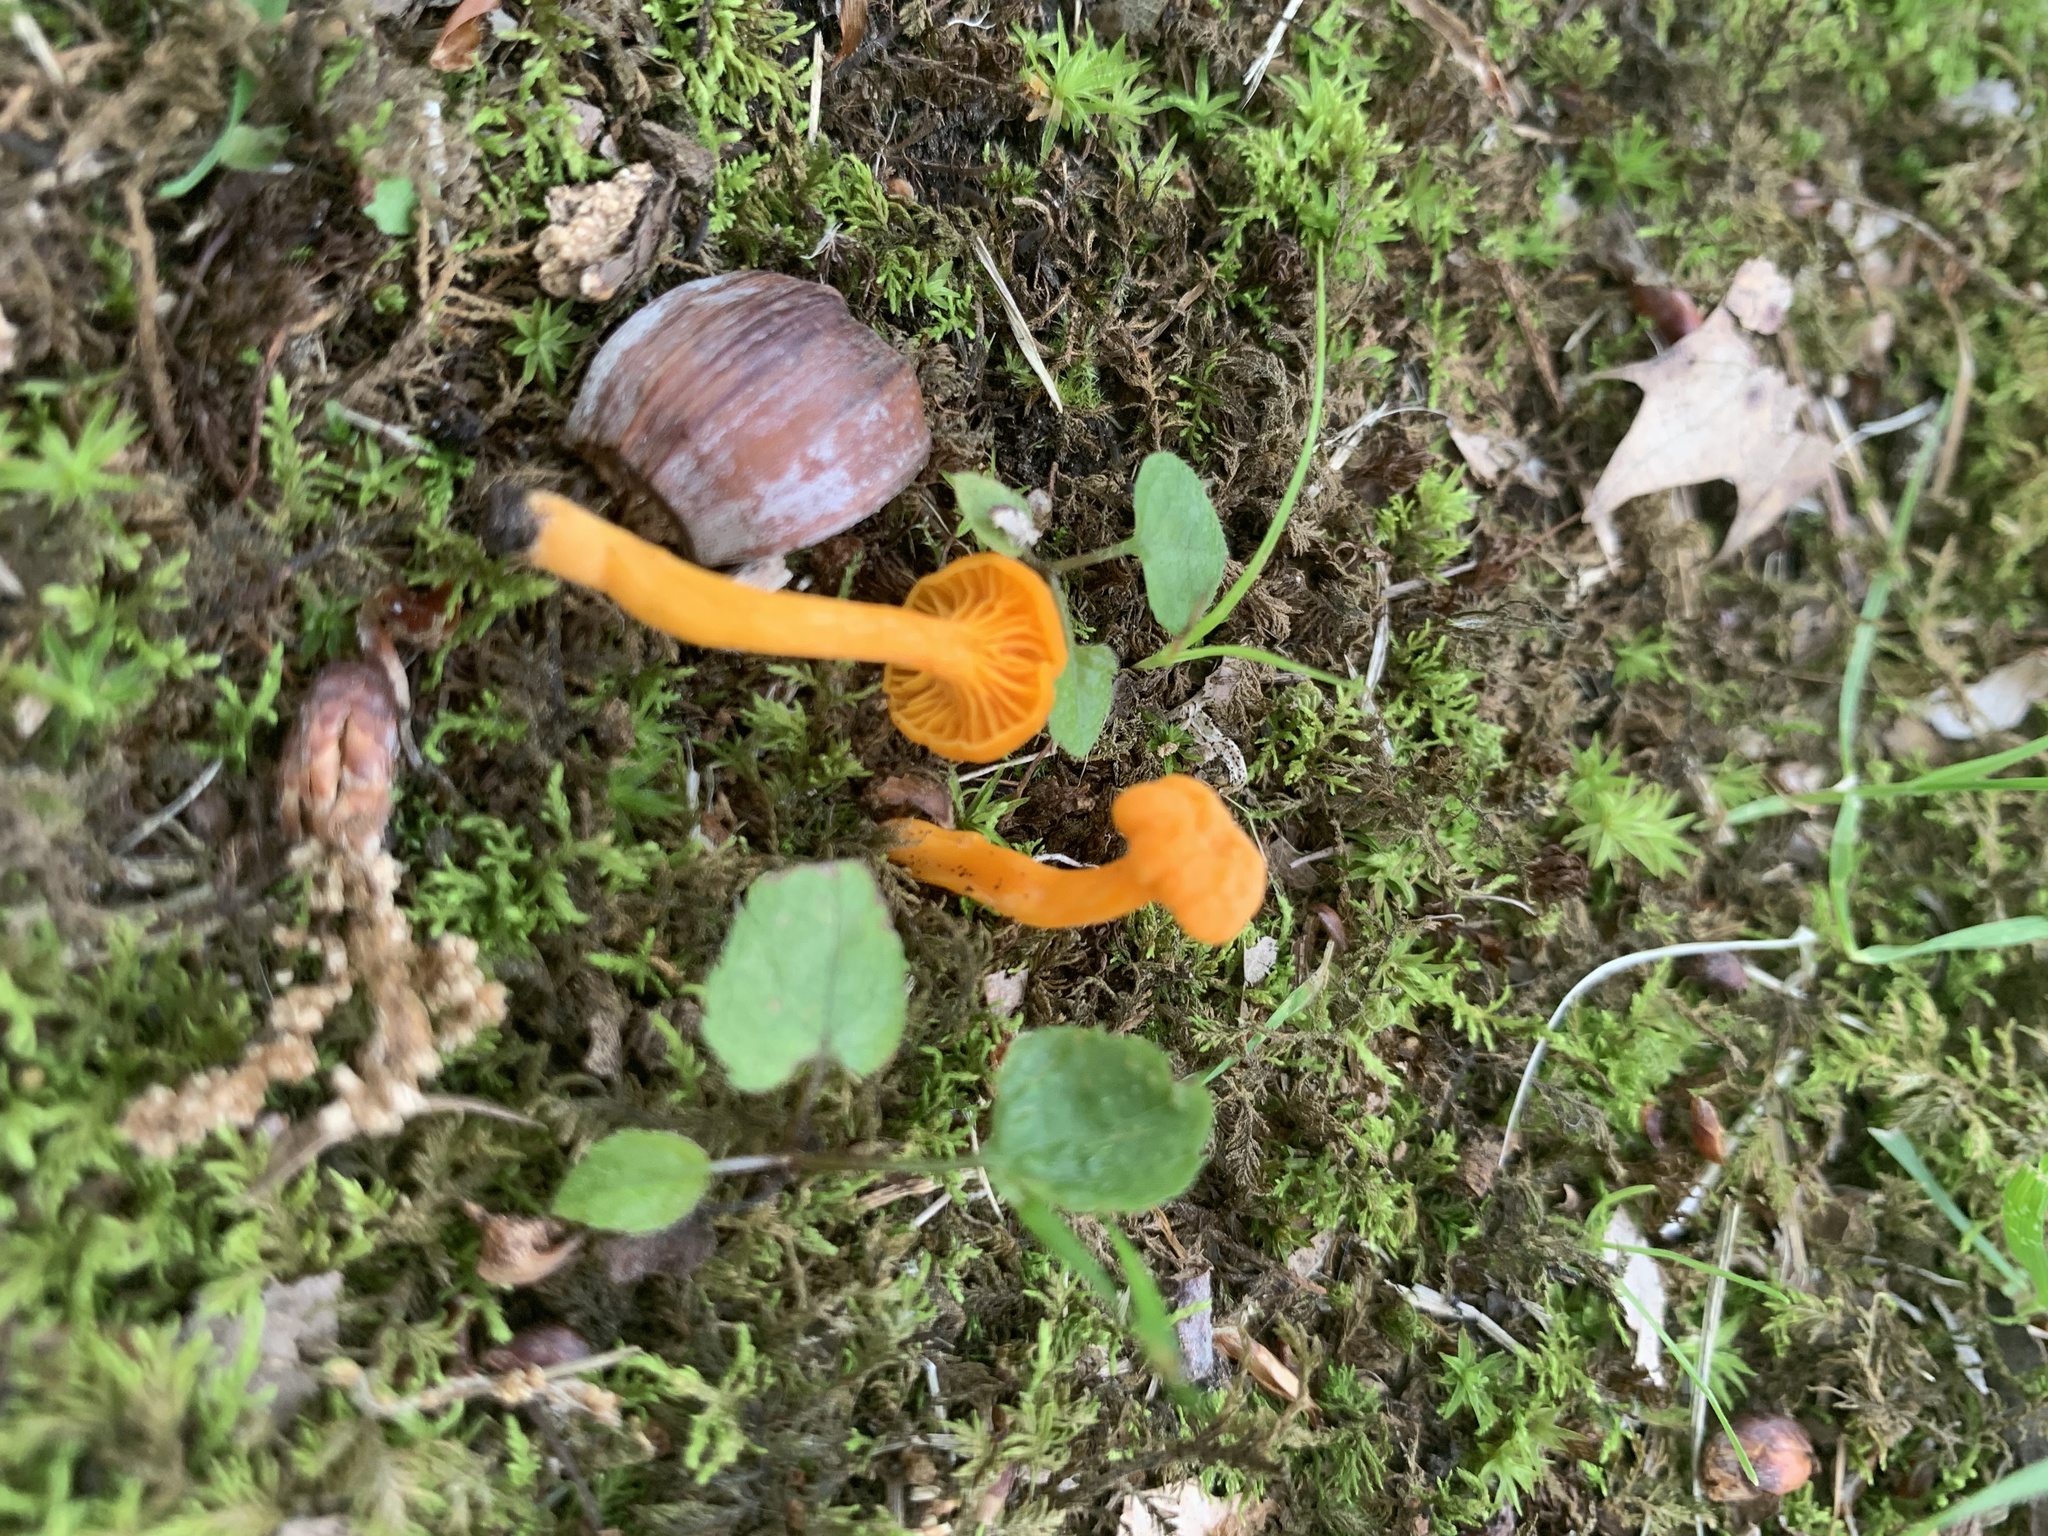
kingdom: Fungi
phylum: Basidiomycota
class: Agaricomycetes
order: Cantharellales
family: Hydnaceae
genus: Cantharellus
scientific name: Cantharellus minor
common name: Small chanterelle
